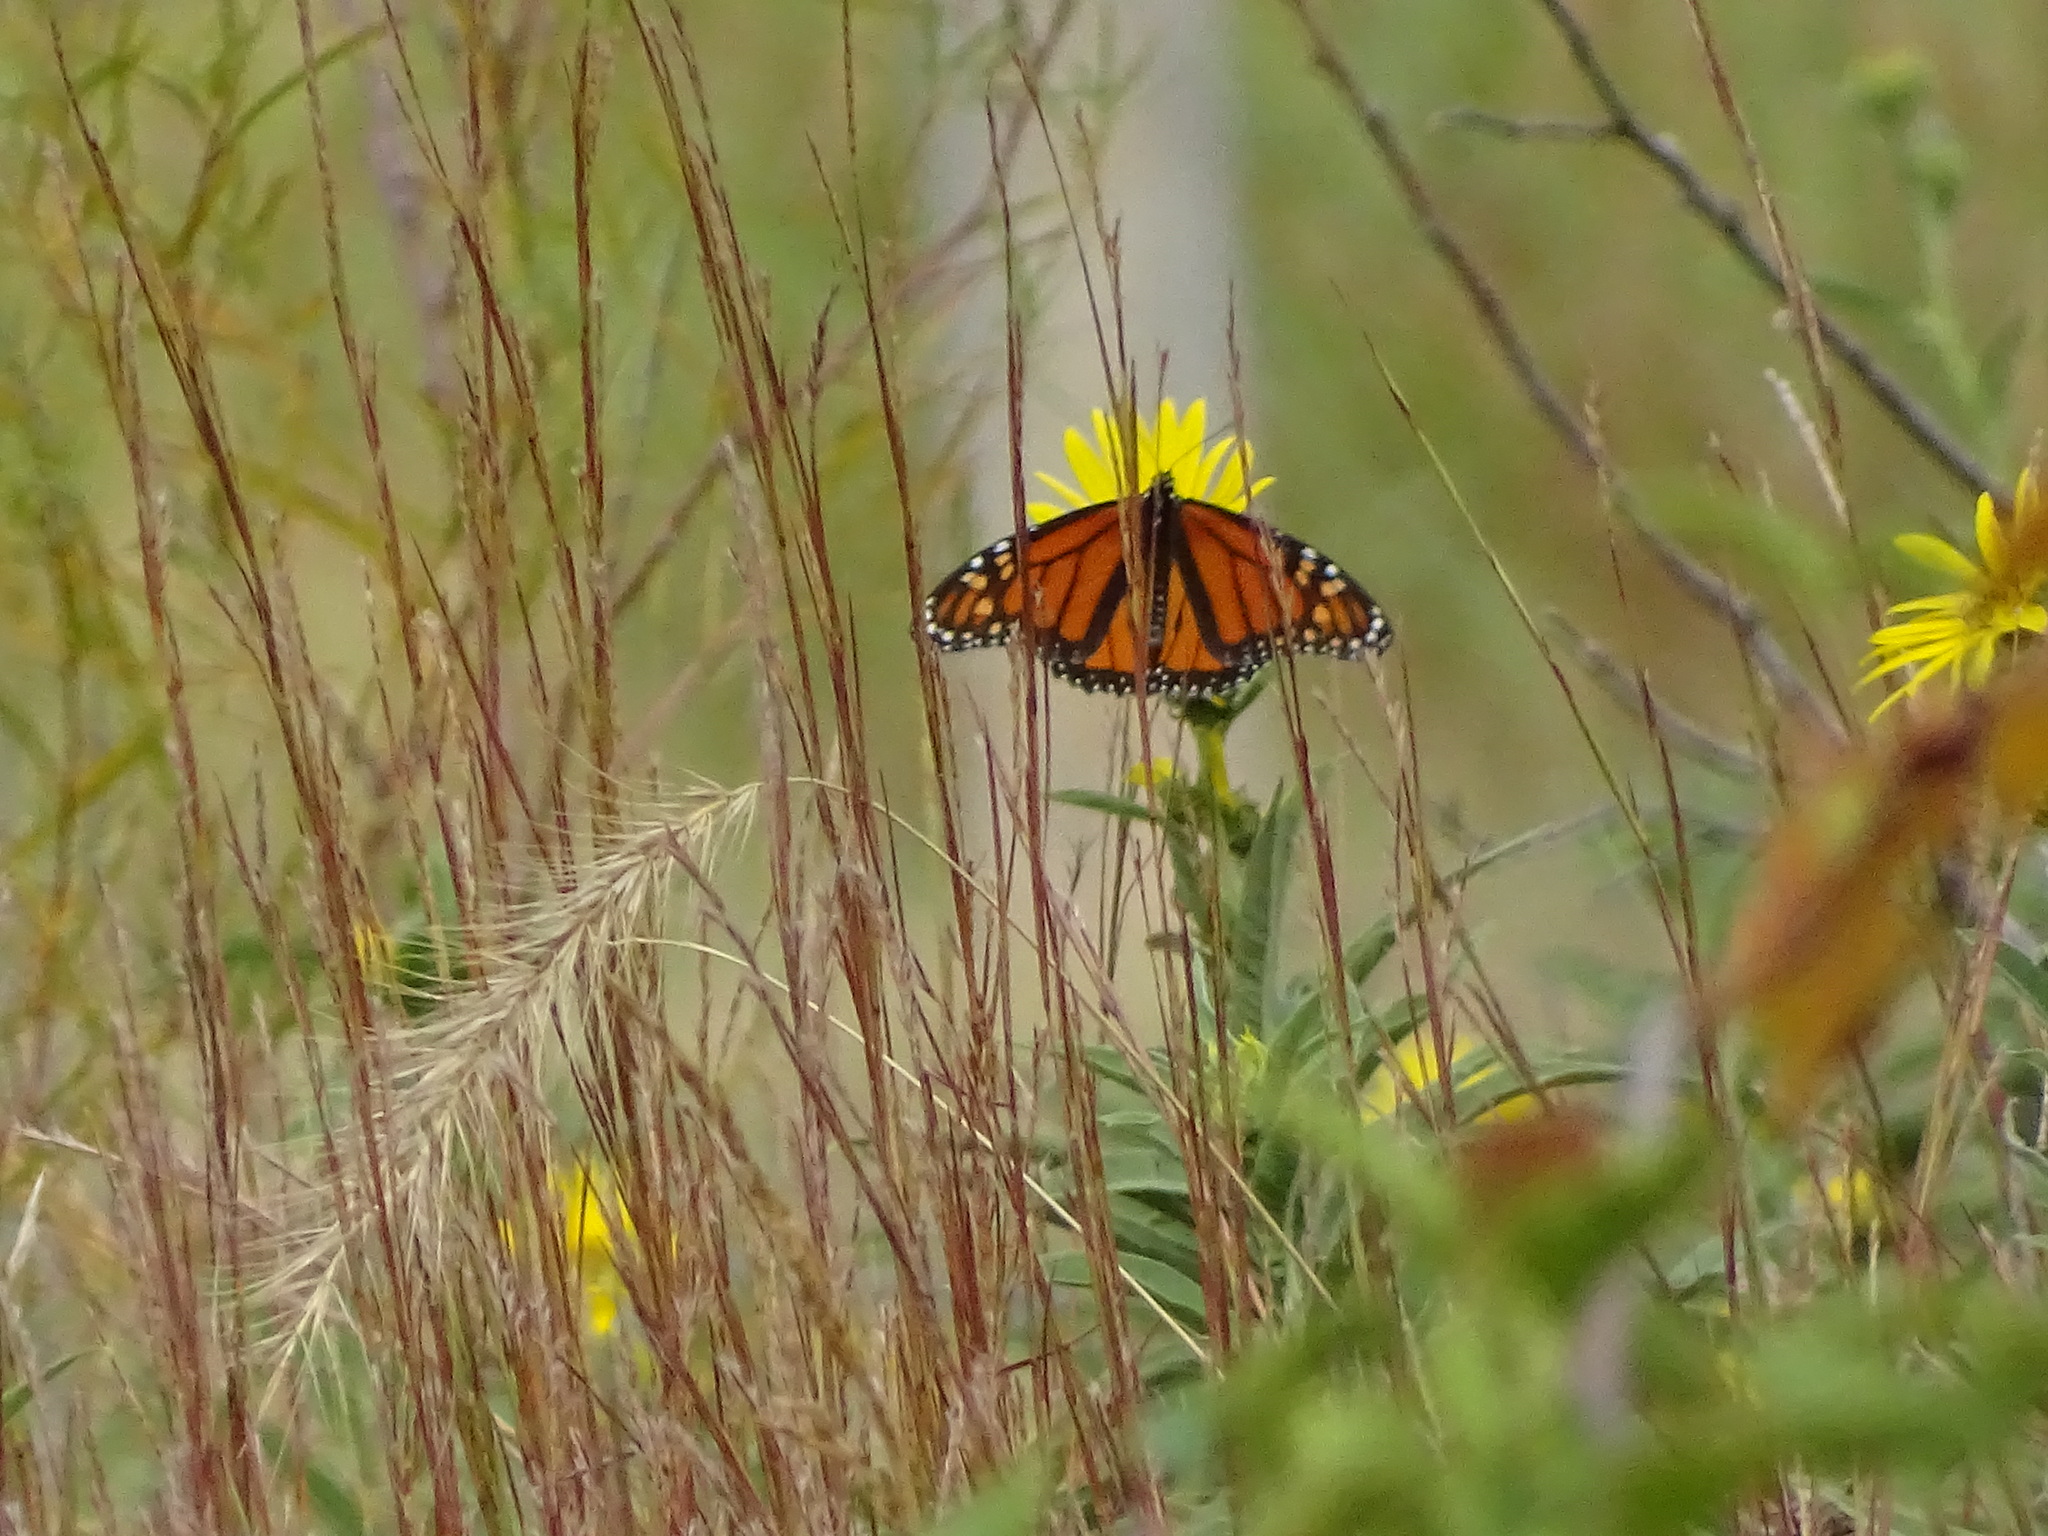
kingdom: Animalia
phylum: Arthropoda
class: Insecta
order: Lepidoptera
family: Nymphalidae
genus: Danaus
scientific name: Danaus plexippus
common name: Monarch
